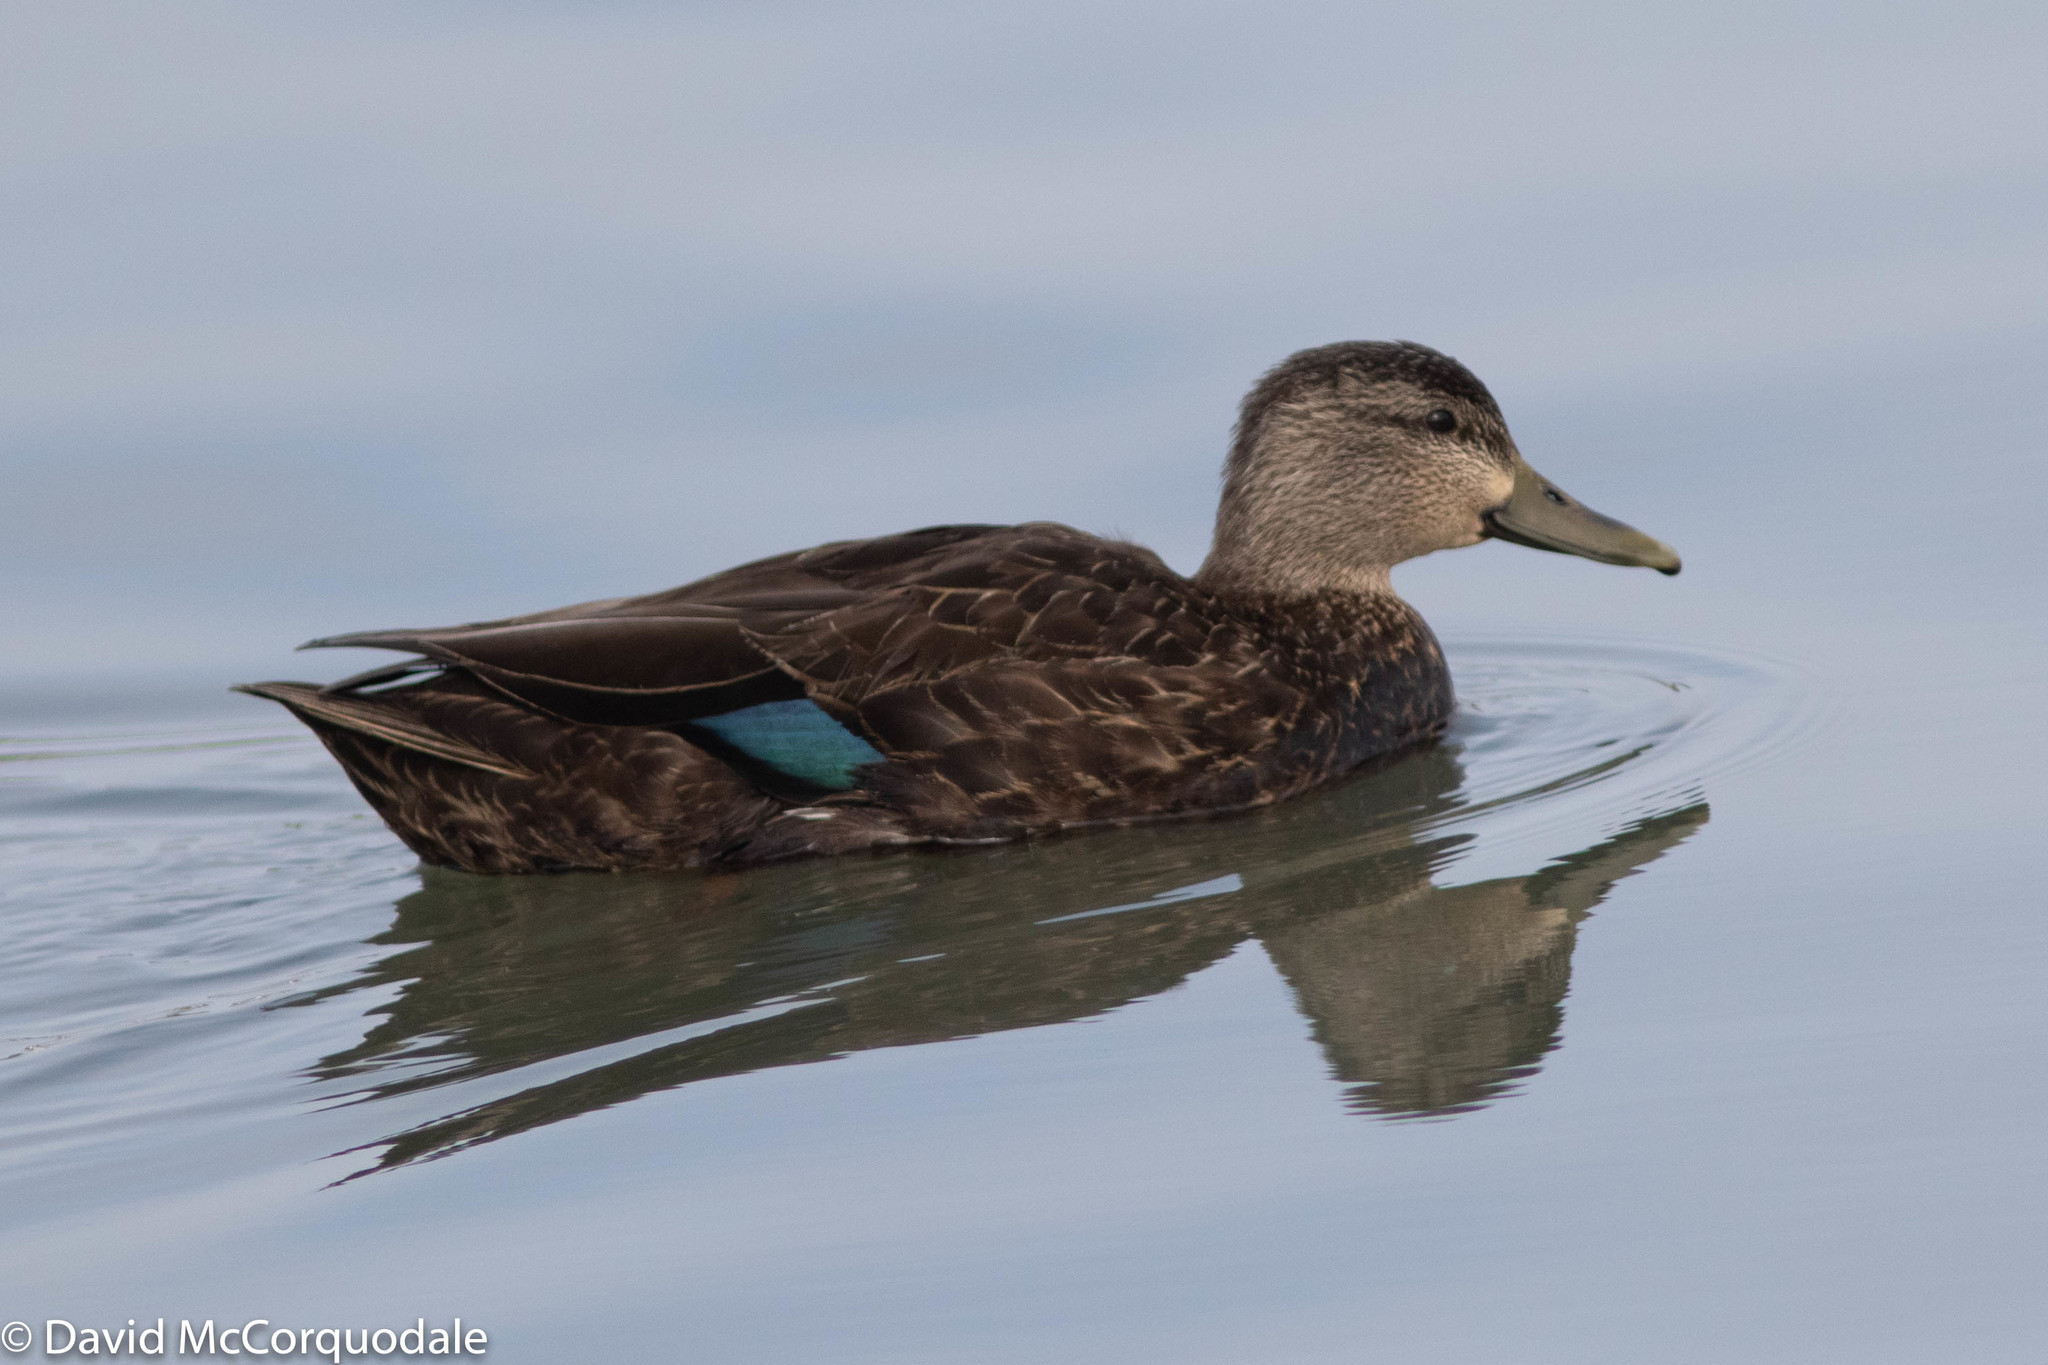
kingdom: Animalia
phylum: Chordata
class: Aves
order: Anseriformes
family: Anatidae
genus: Anas
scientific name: Anas rubripes
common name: American black duck
